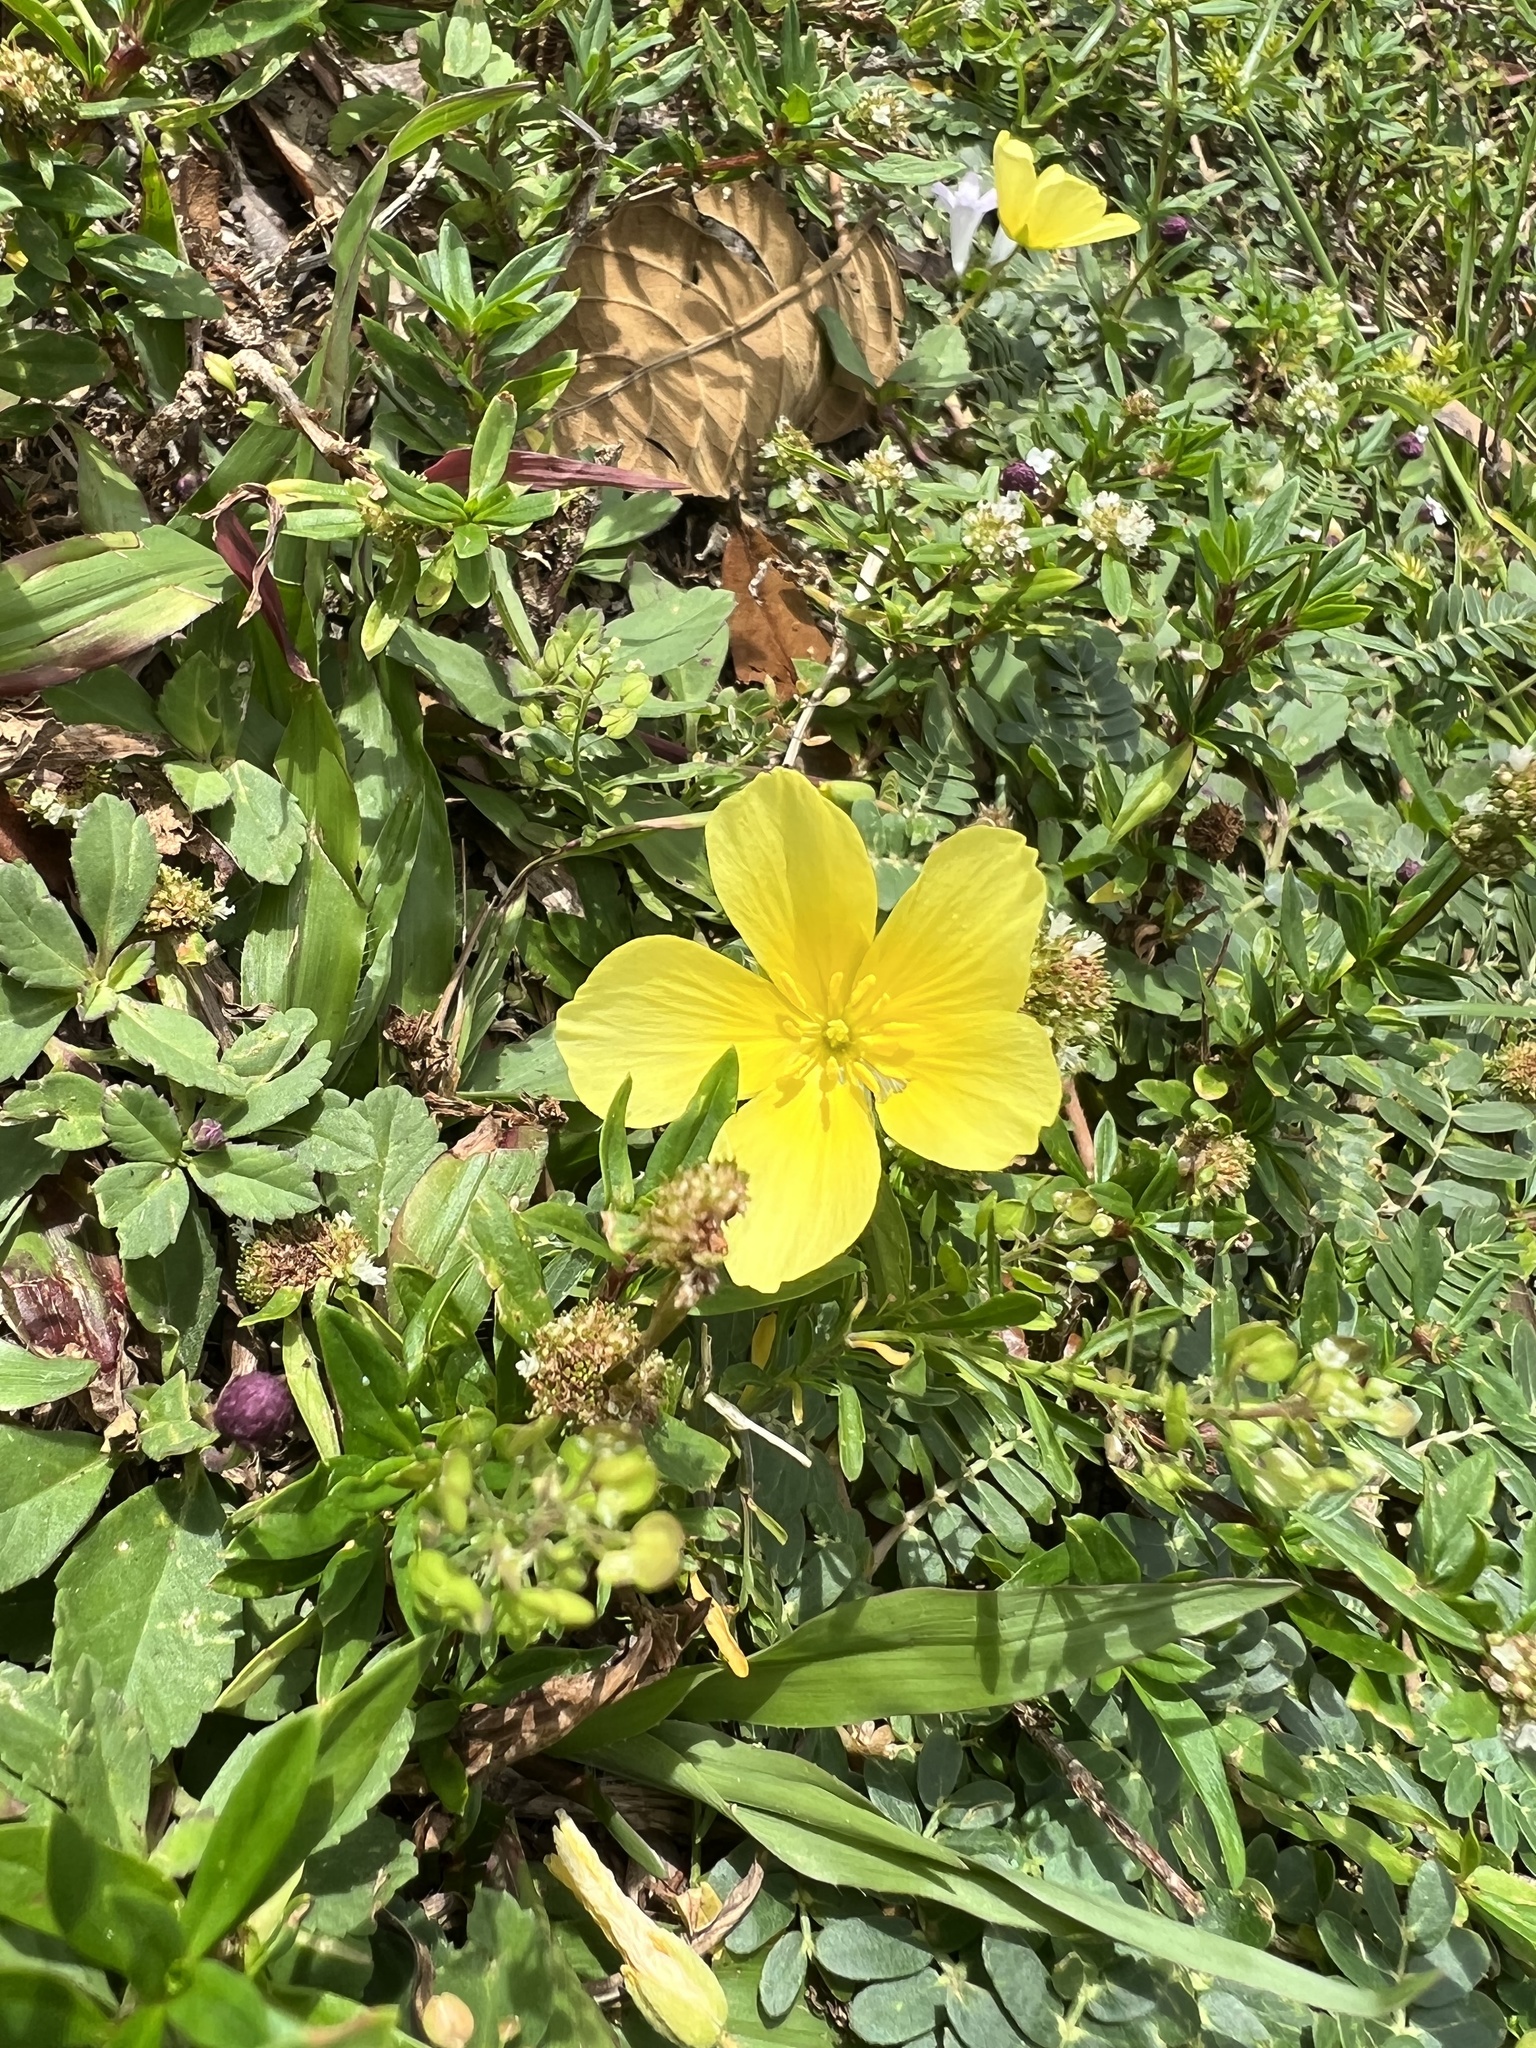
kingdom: Plantae
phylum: Tracheophyta
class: Magnoliopsida
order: Zygophyllales
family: Zygophyllaceae
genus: Tribulus
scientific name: Tribulus cistoides
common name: Jamaican feverplant
